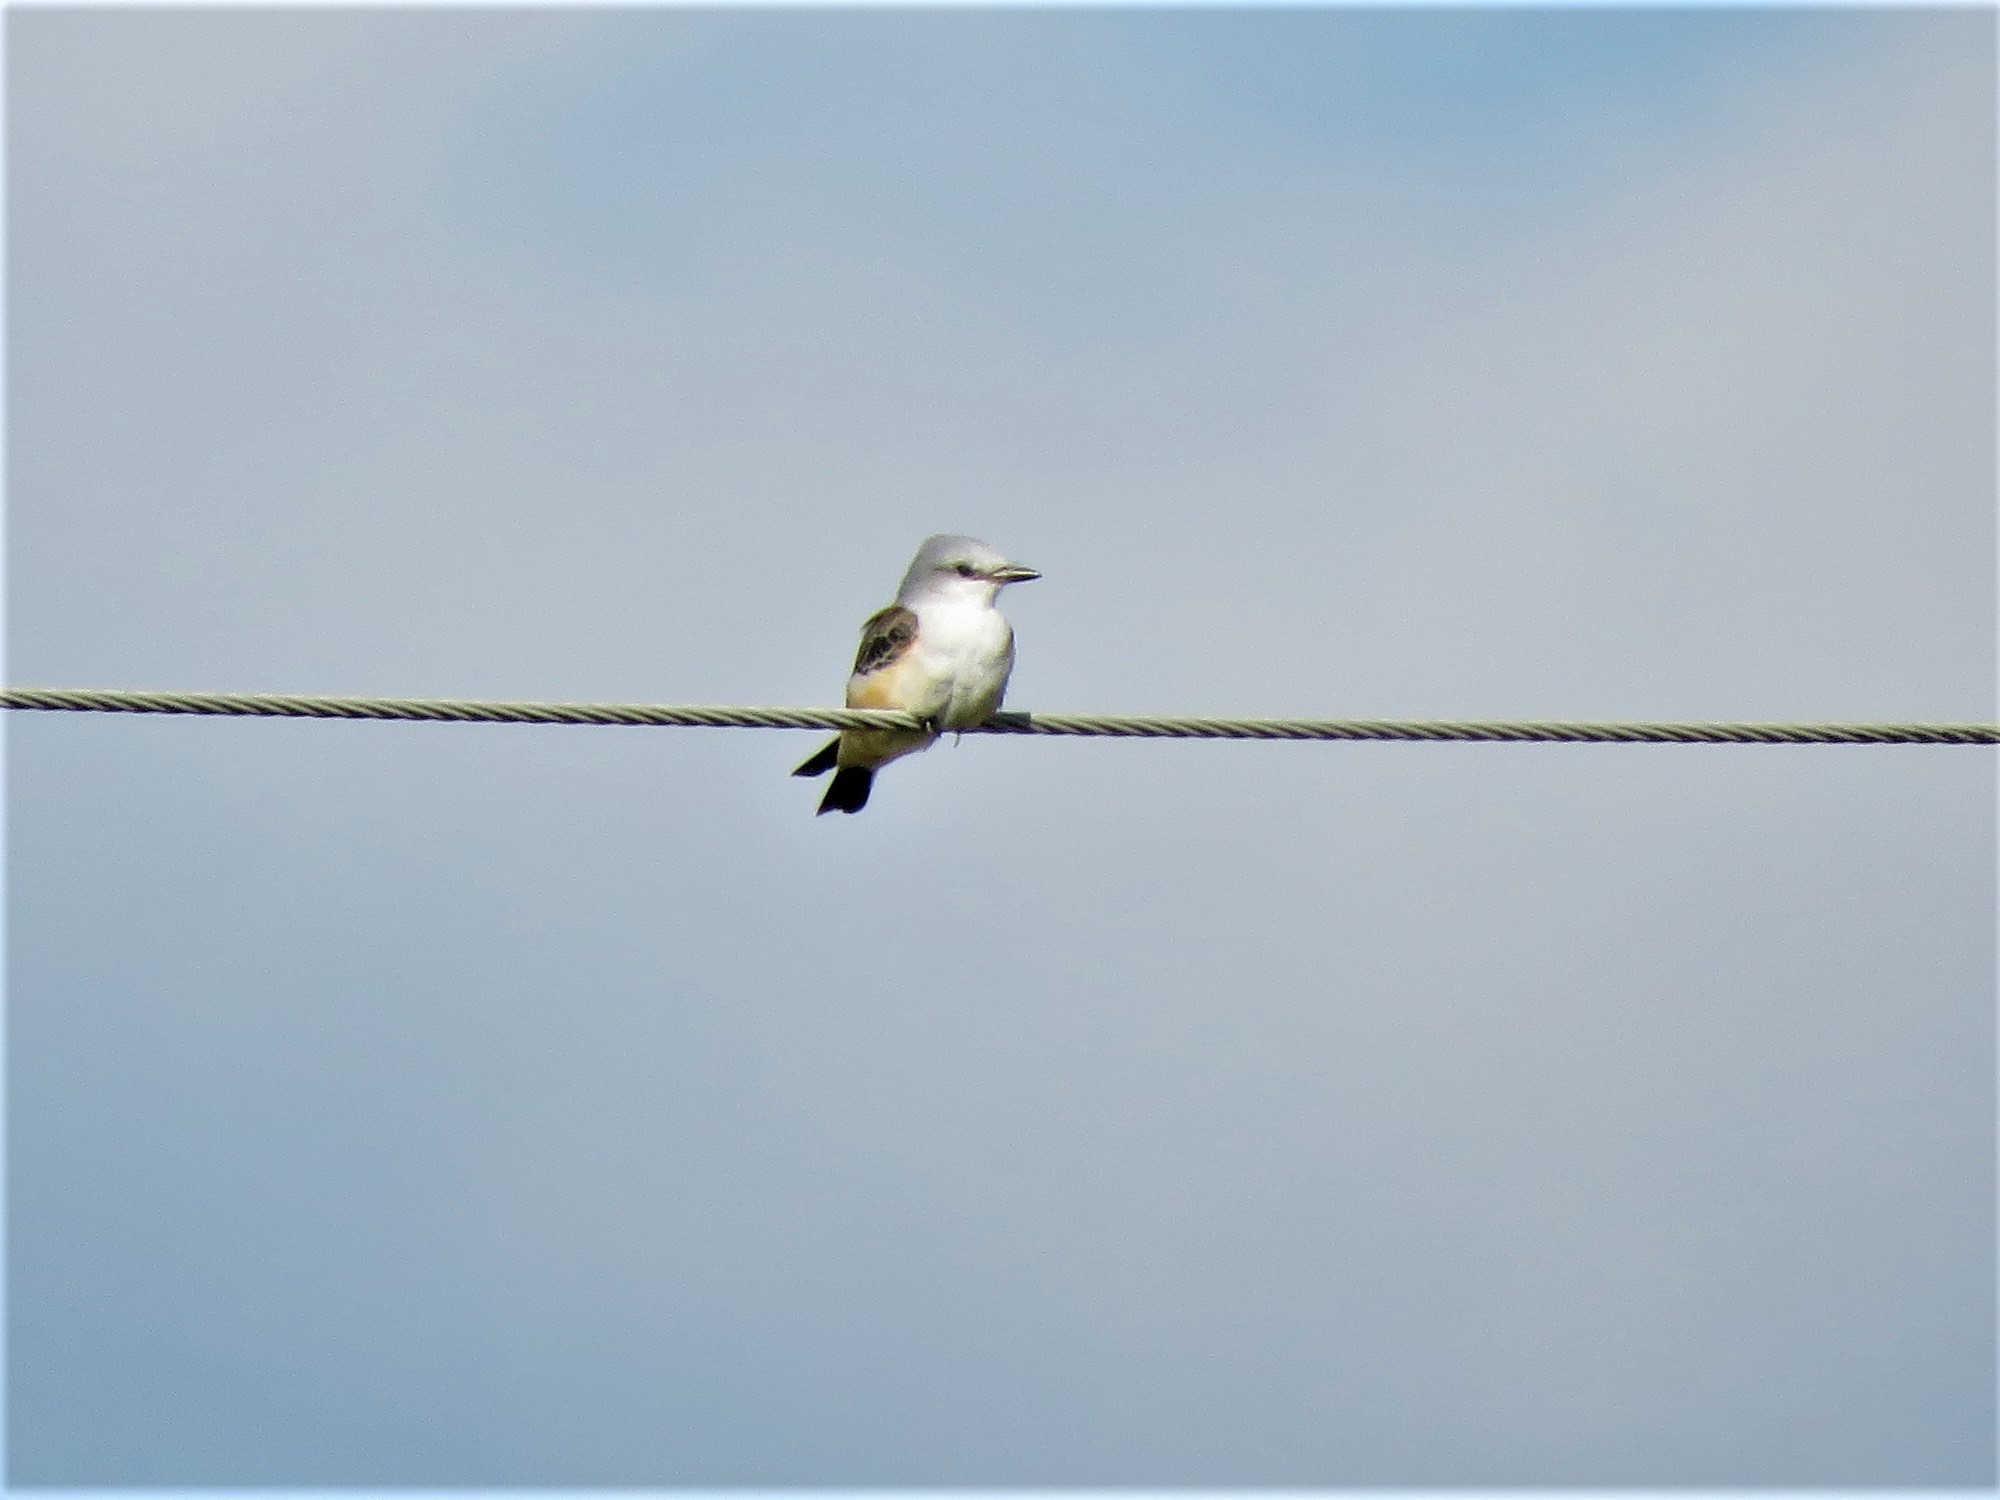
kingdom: Animalia
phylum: Chordata
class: Aves
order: Passeriformes
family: Tyrannidae
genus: Tyrannus
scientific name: Tyrannus forficatus
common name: Scissor-tailed flycatcher
